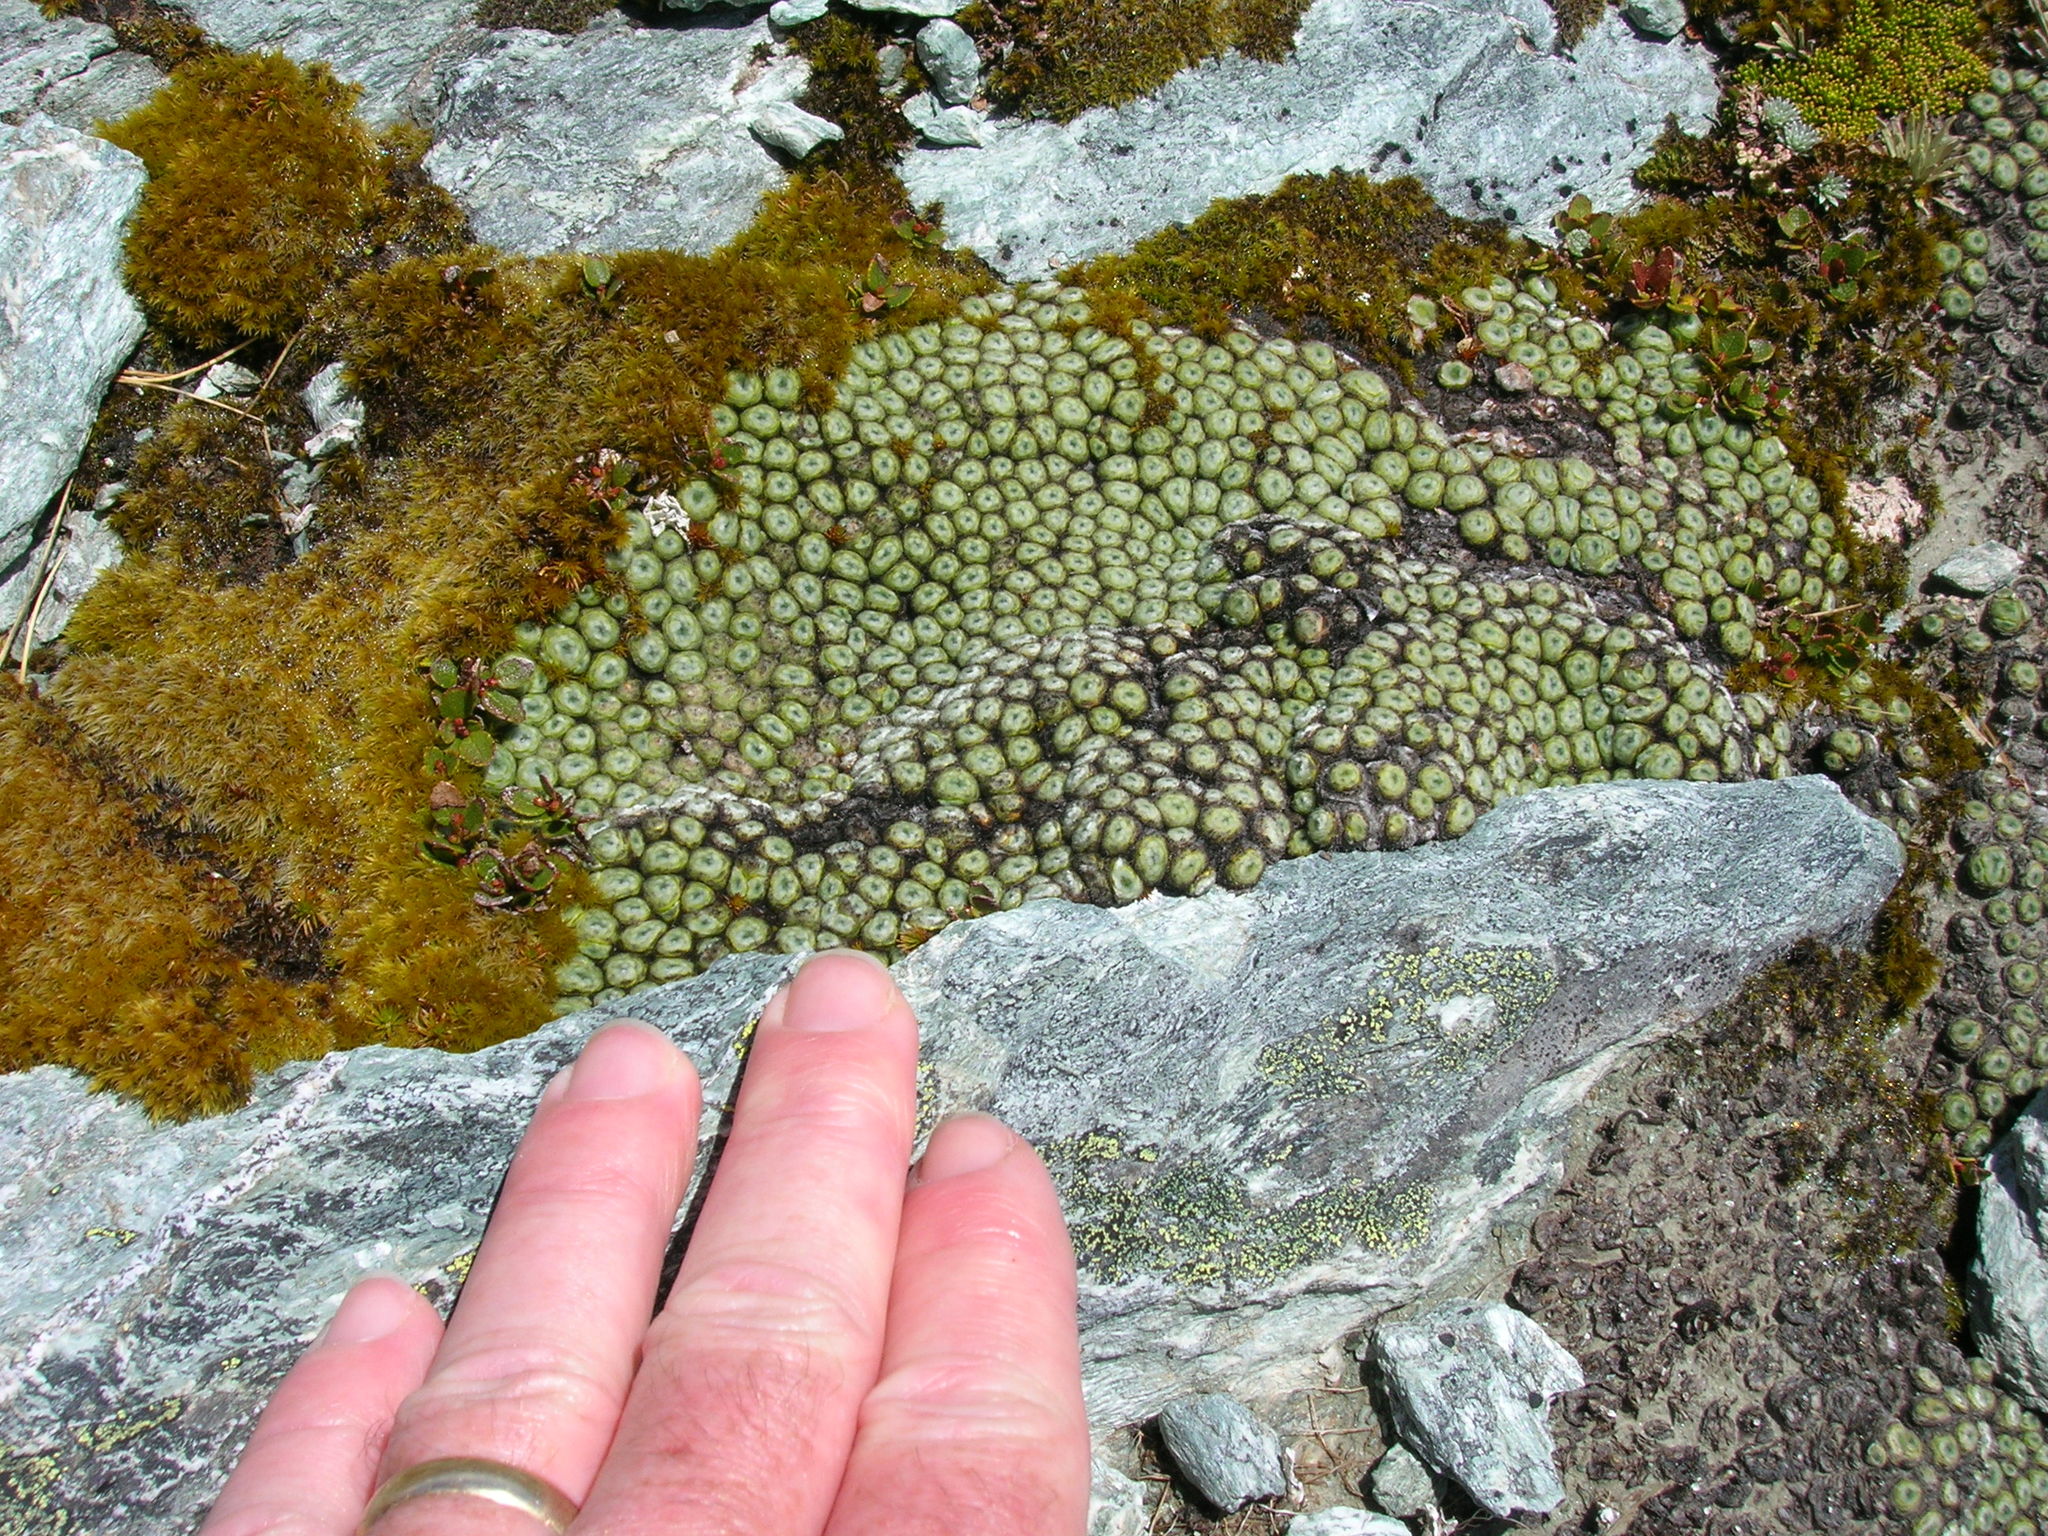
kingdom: Plantae
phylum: Tracheophyta
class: Magnoliopsida
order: Asterales
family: Asteraceae
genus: Raoulia
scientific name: Raoulia buchananii
